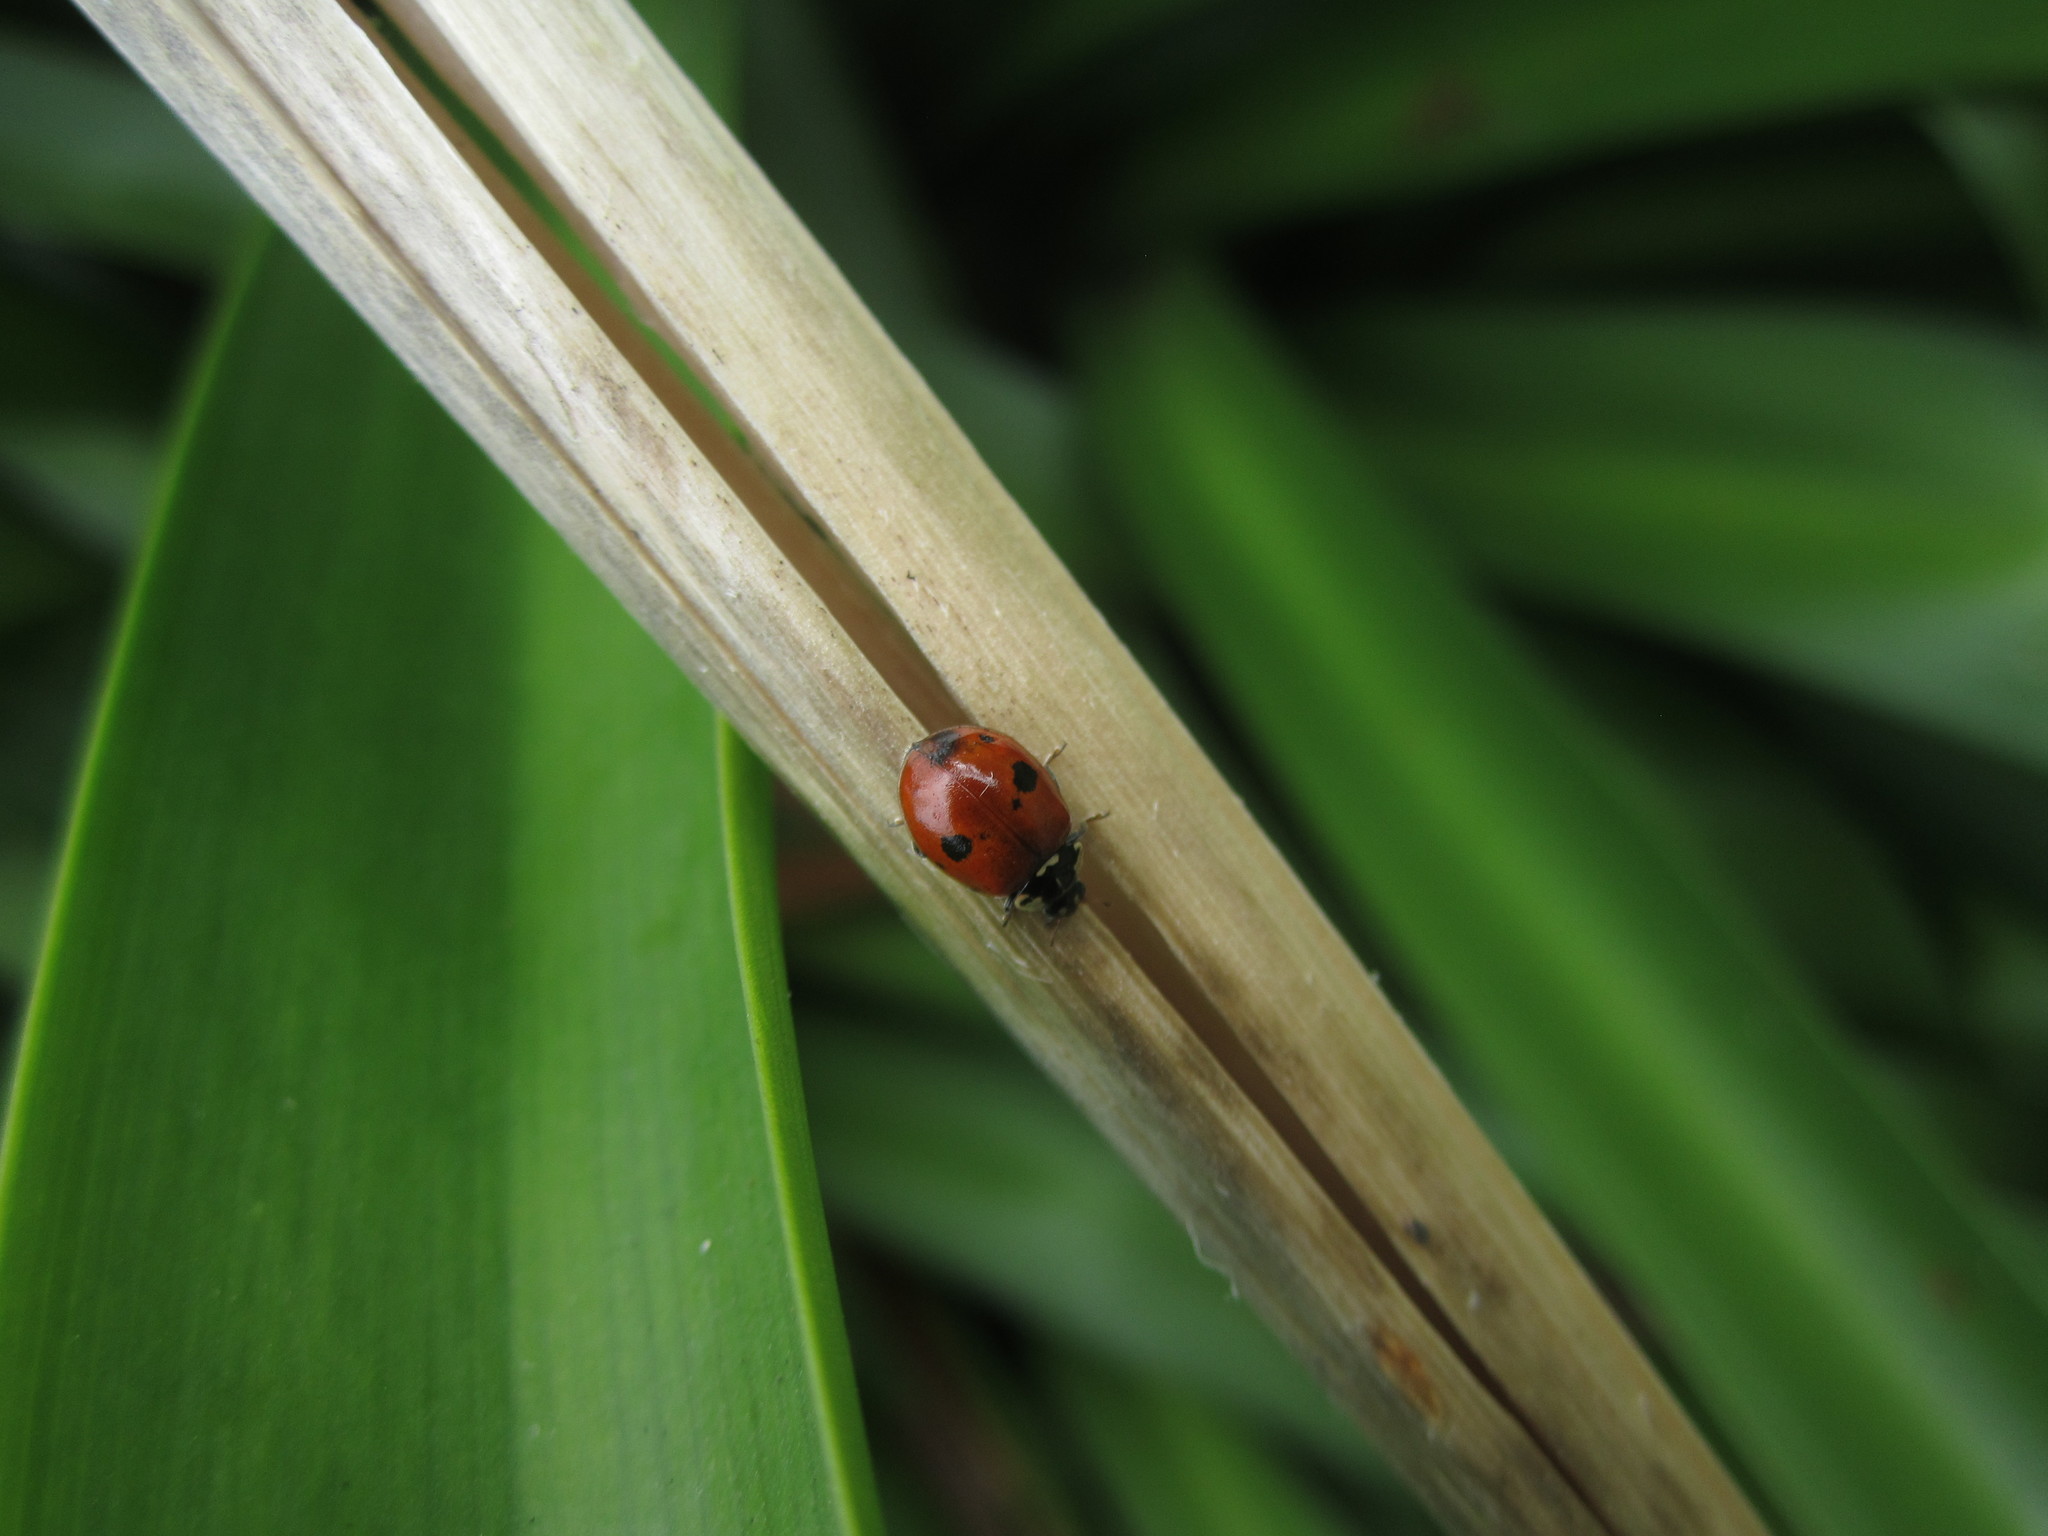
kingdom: Animalia
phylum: Arthropoda
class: Insecta
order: Coleoptera
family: Coccinellidae
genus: Adalia
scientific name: Adalia bipunctata
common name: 2-spot ladybird
